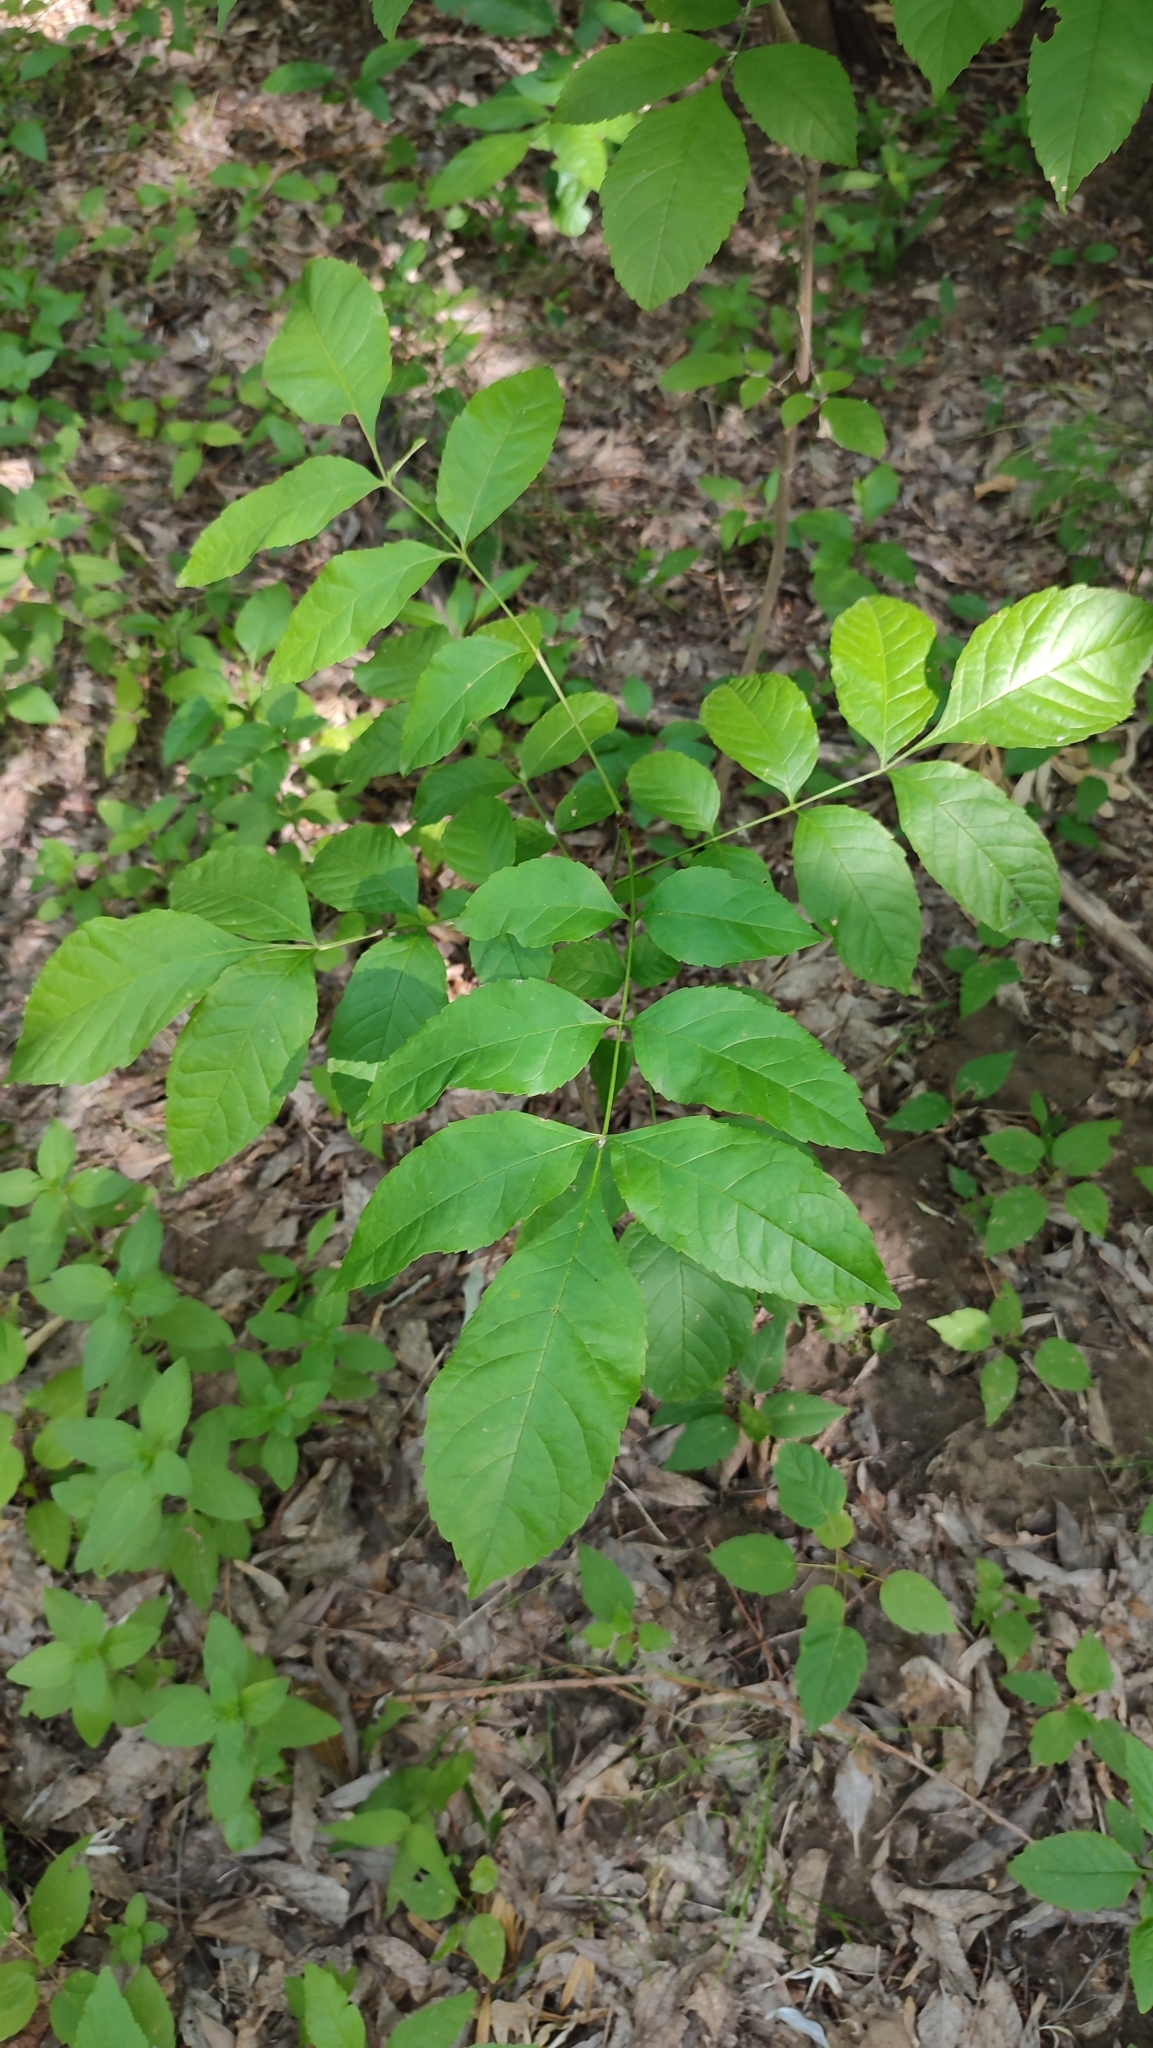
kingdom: Plantae
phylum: Tracheophyta
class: Magnoliopsida
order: Lamiales
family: Oleaceae
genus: Fraxinus
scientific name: Fraxinus pennsylvanica
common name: Green ash
